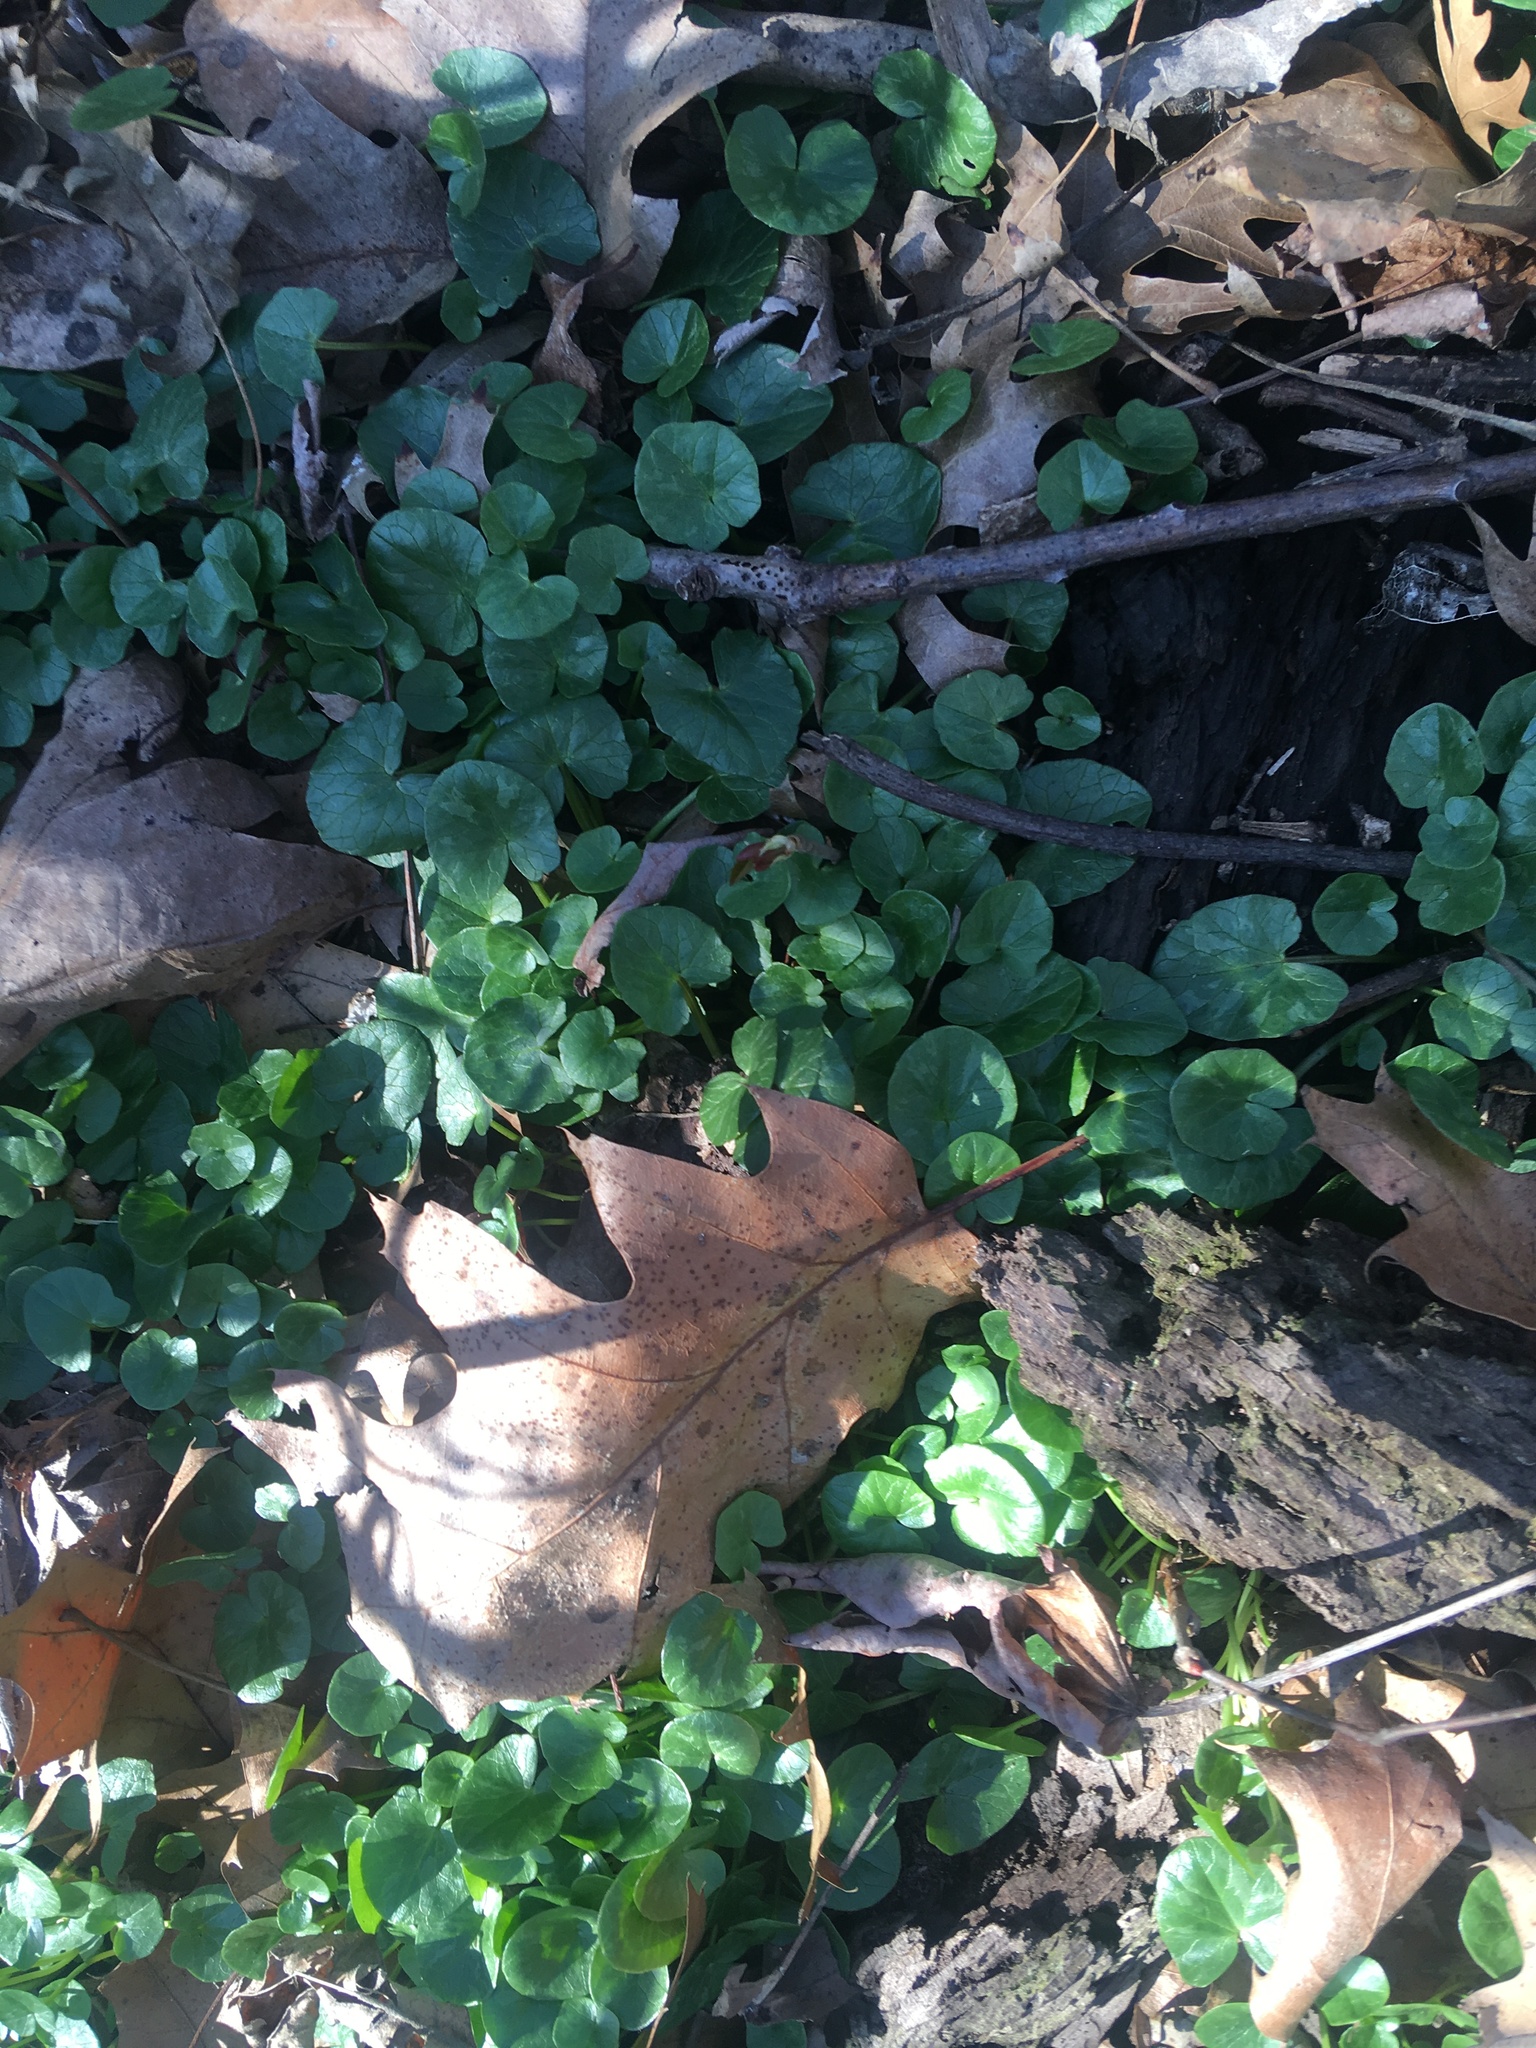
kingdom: Plantae
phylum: Tracheophyta
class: Magnoliopsida
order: Ranunculales
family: Ranunculaceae
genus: Ficaria
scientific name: Ficaria verna
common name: Lesser celandine
